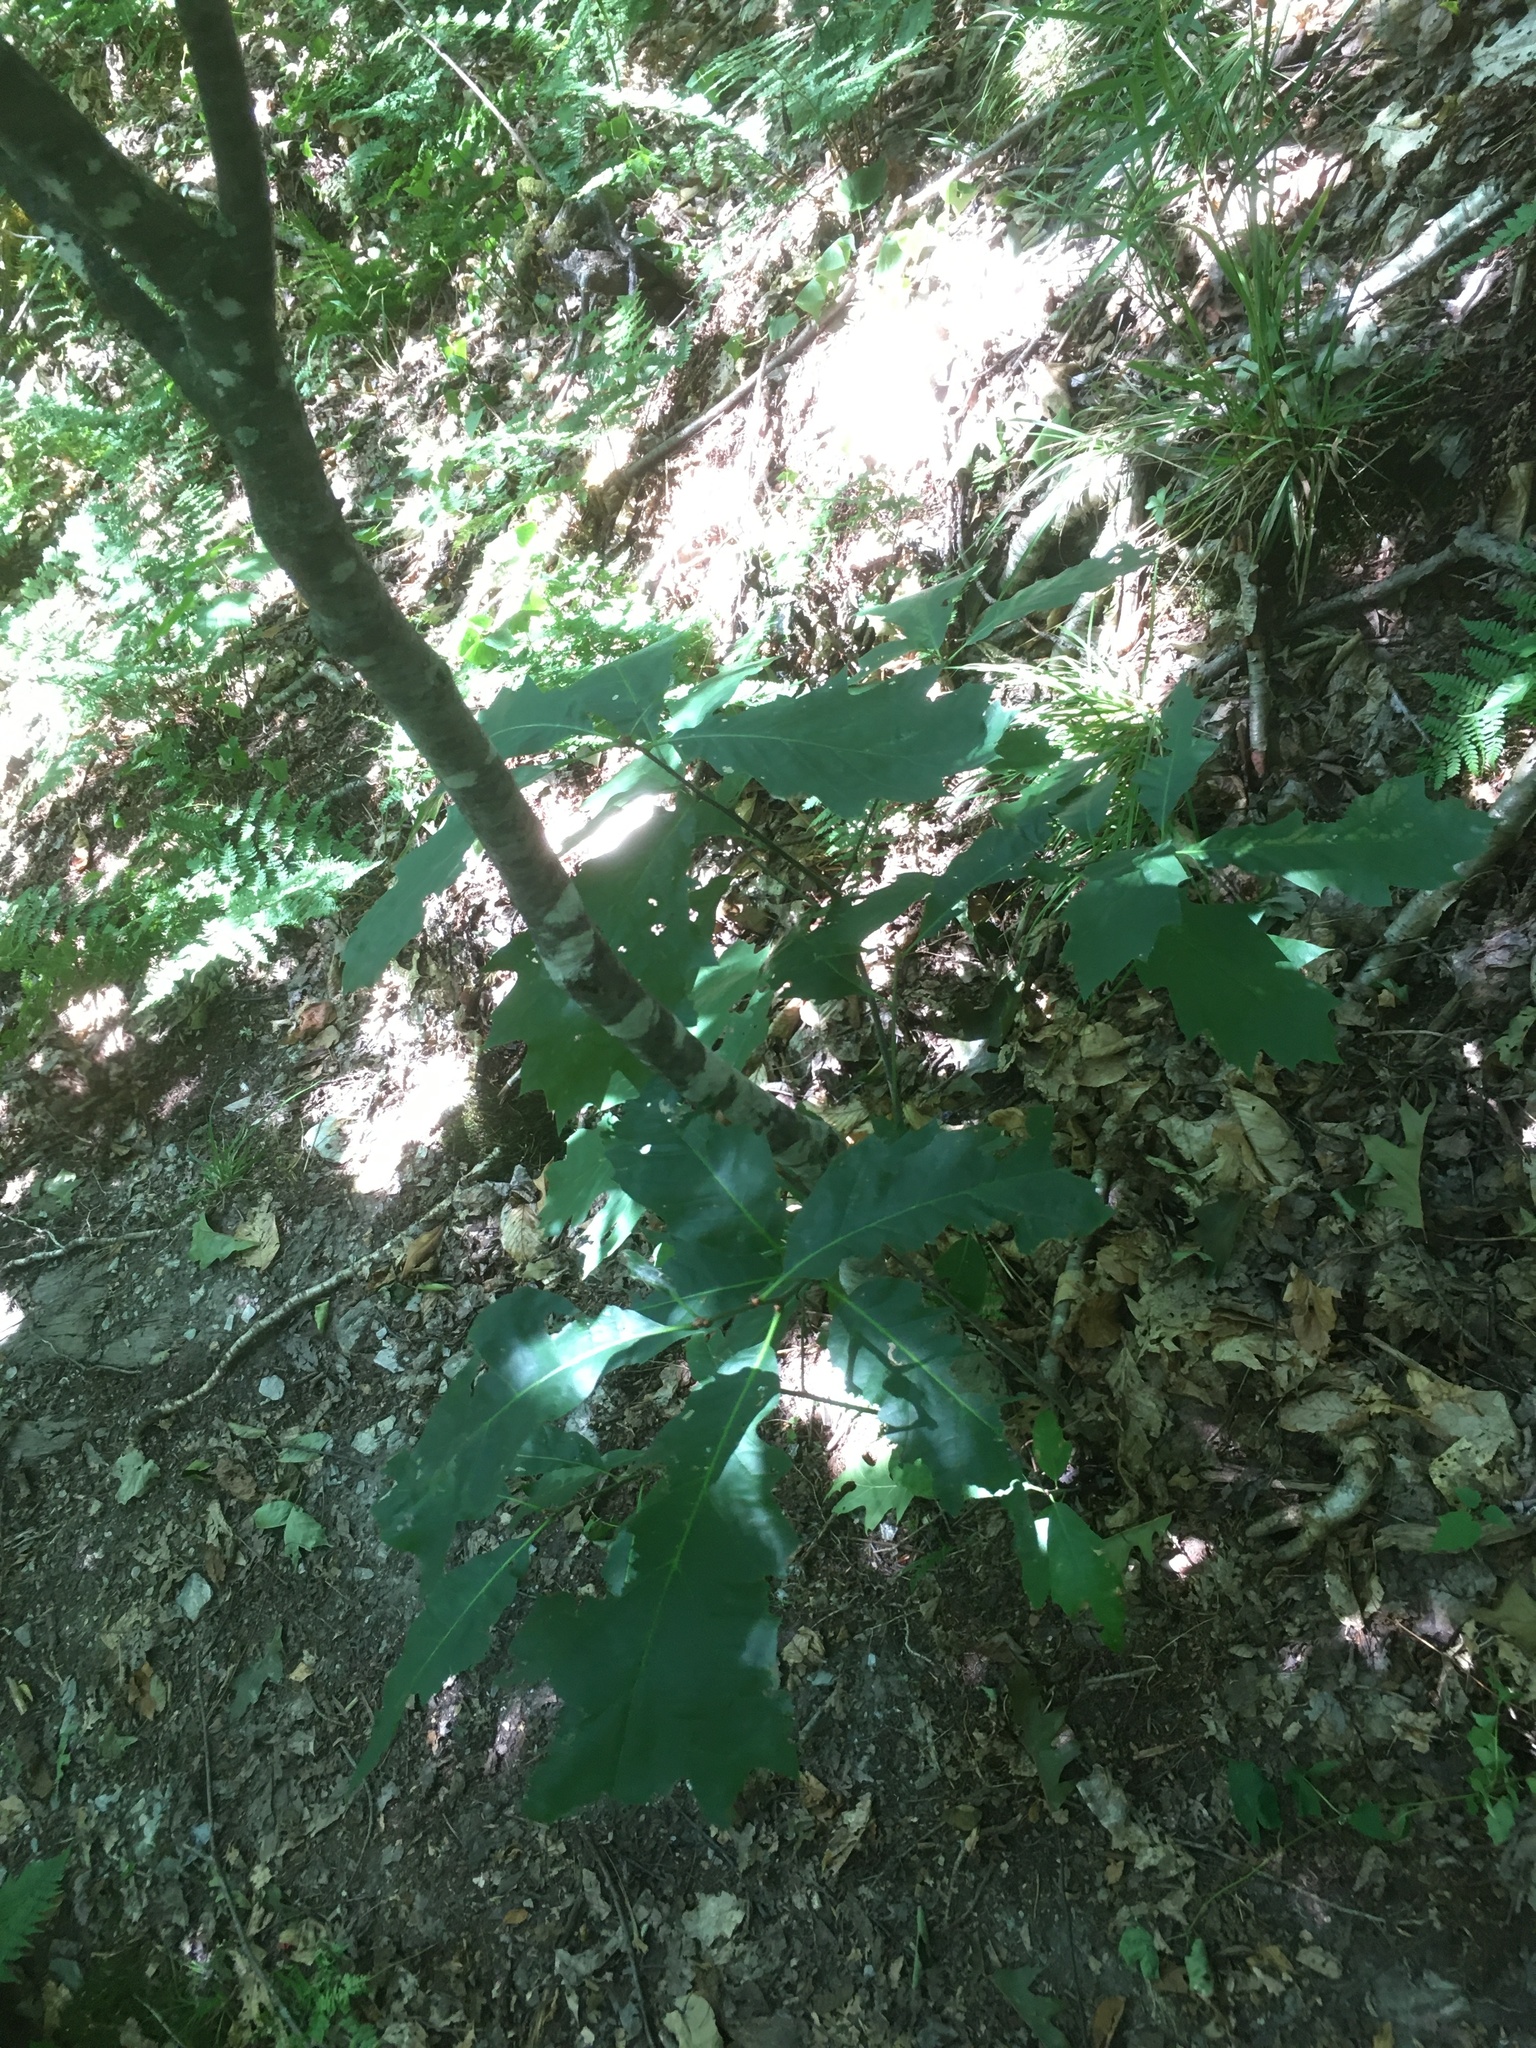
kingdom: Plantae
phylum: Tracheophyta
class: Magnoliopsida
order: Fagales
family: Fagaceae
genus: Quercus
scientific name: Quercus rubra
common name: Red oak
